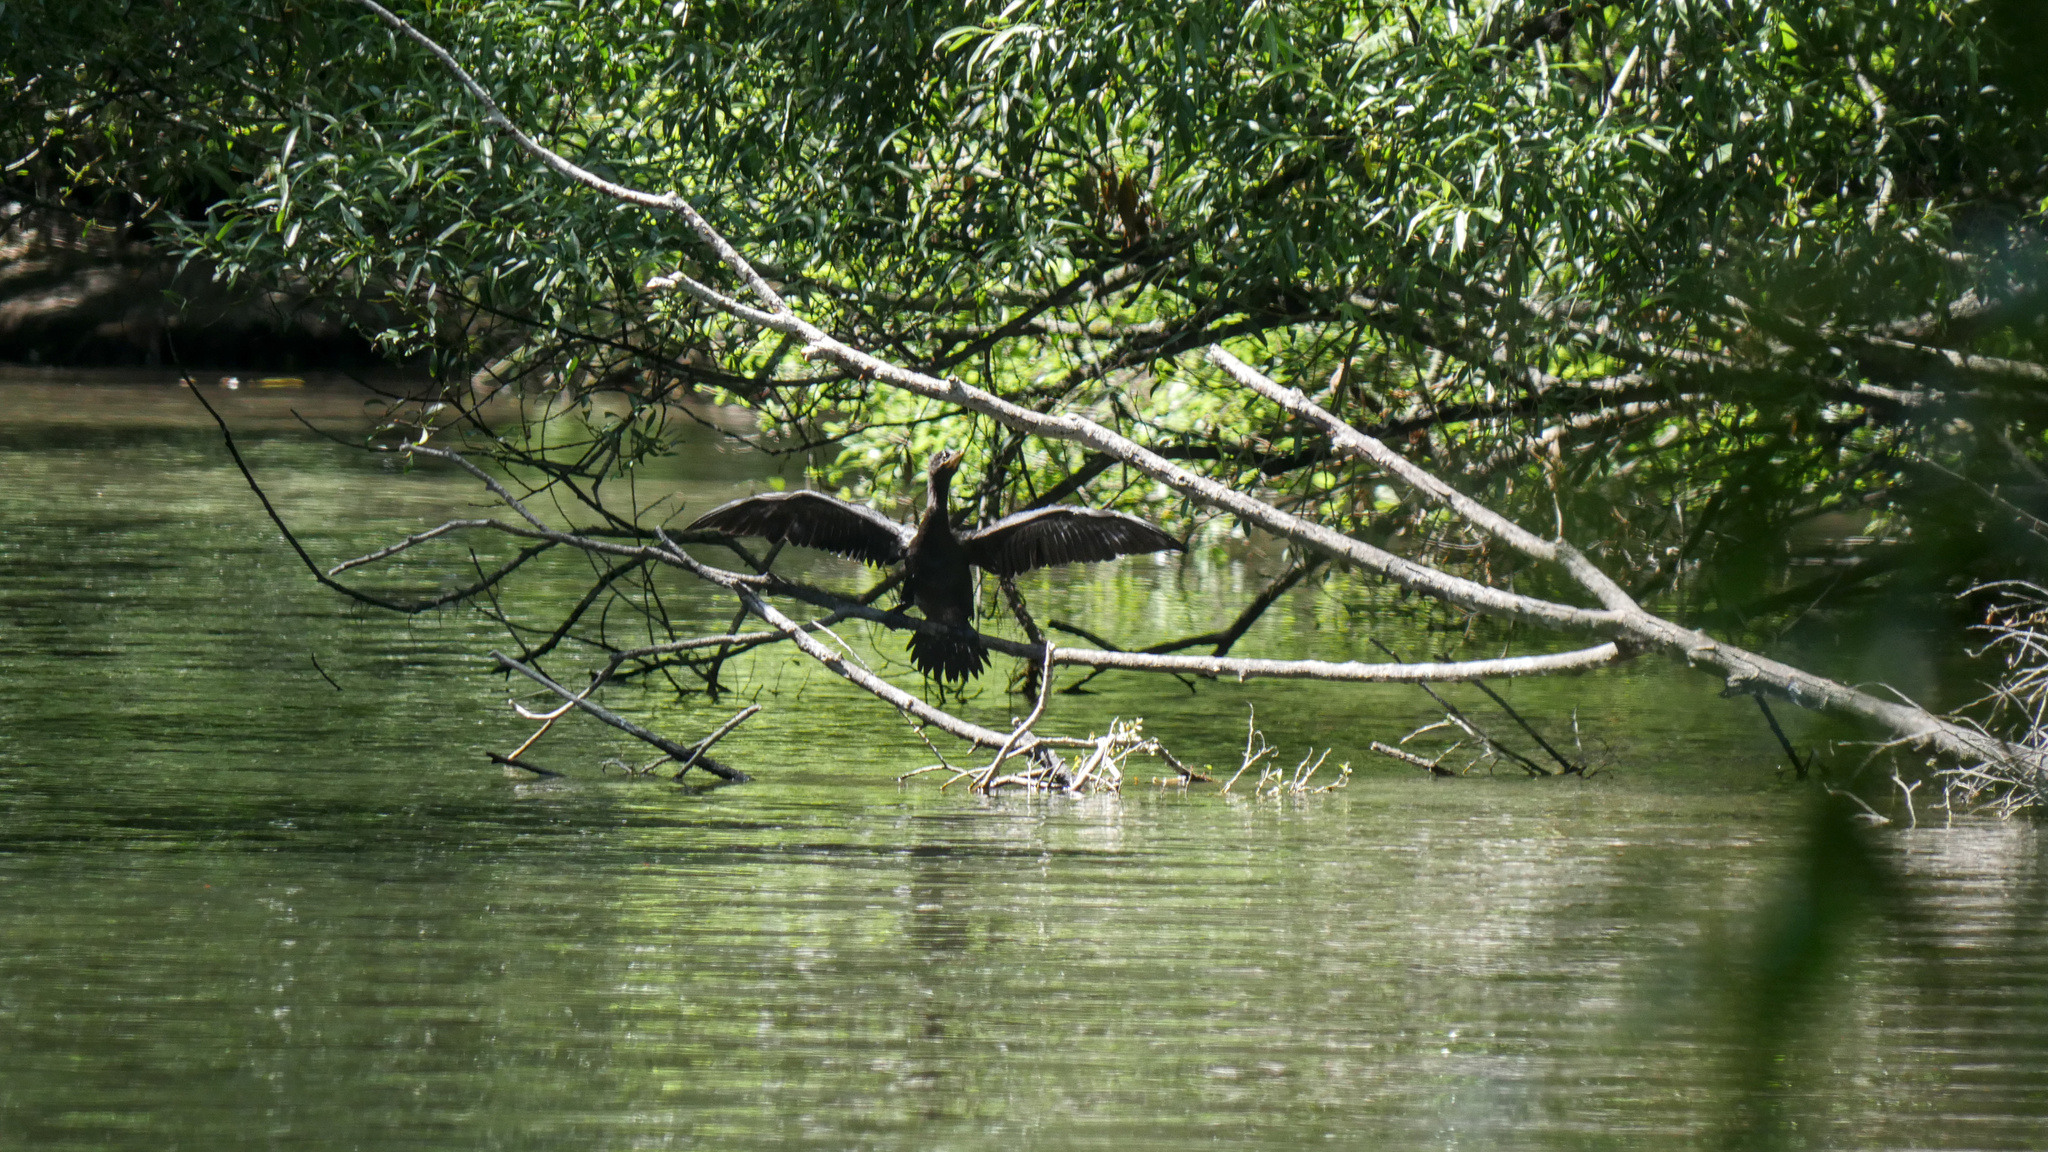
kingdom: Animalia
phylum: Chordata
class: Aves
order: Suliformes
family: Phalacrocoracidae
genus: Microcarbo
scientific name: Microcarbo melanoleucos
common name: Little pied cormorant
